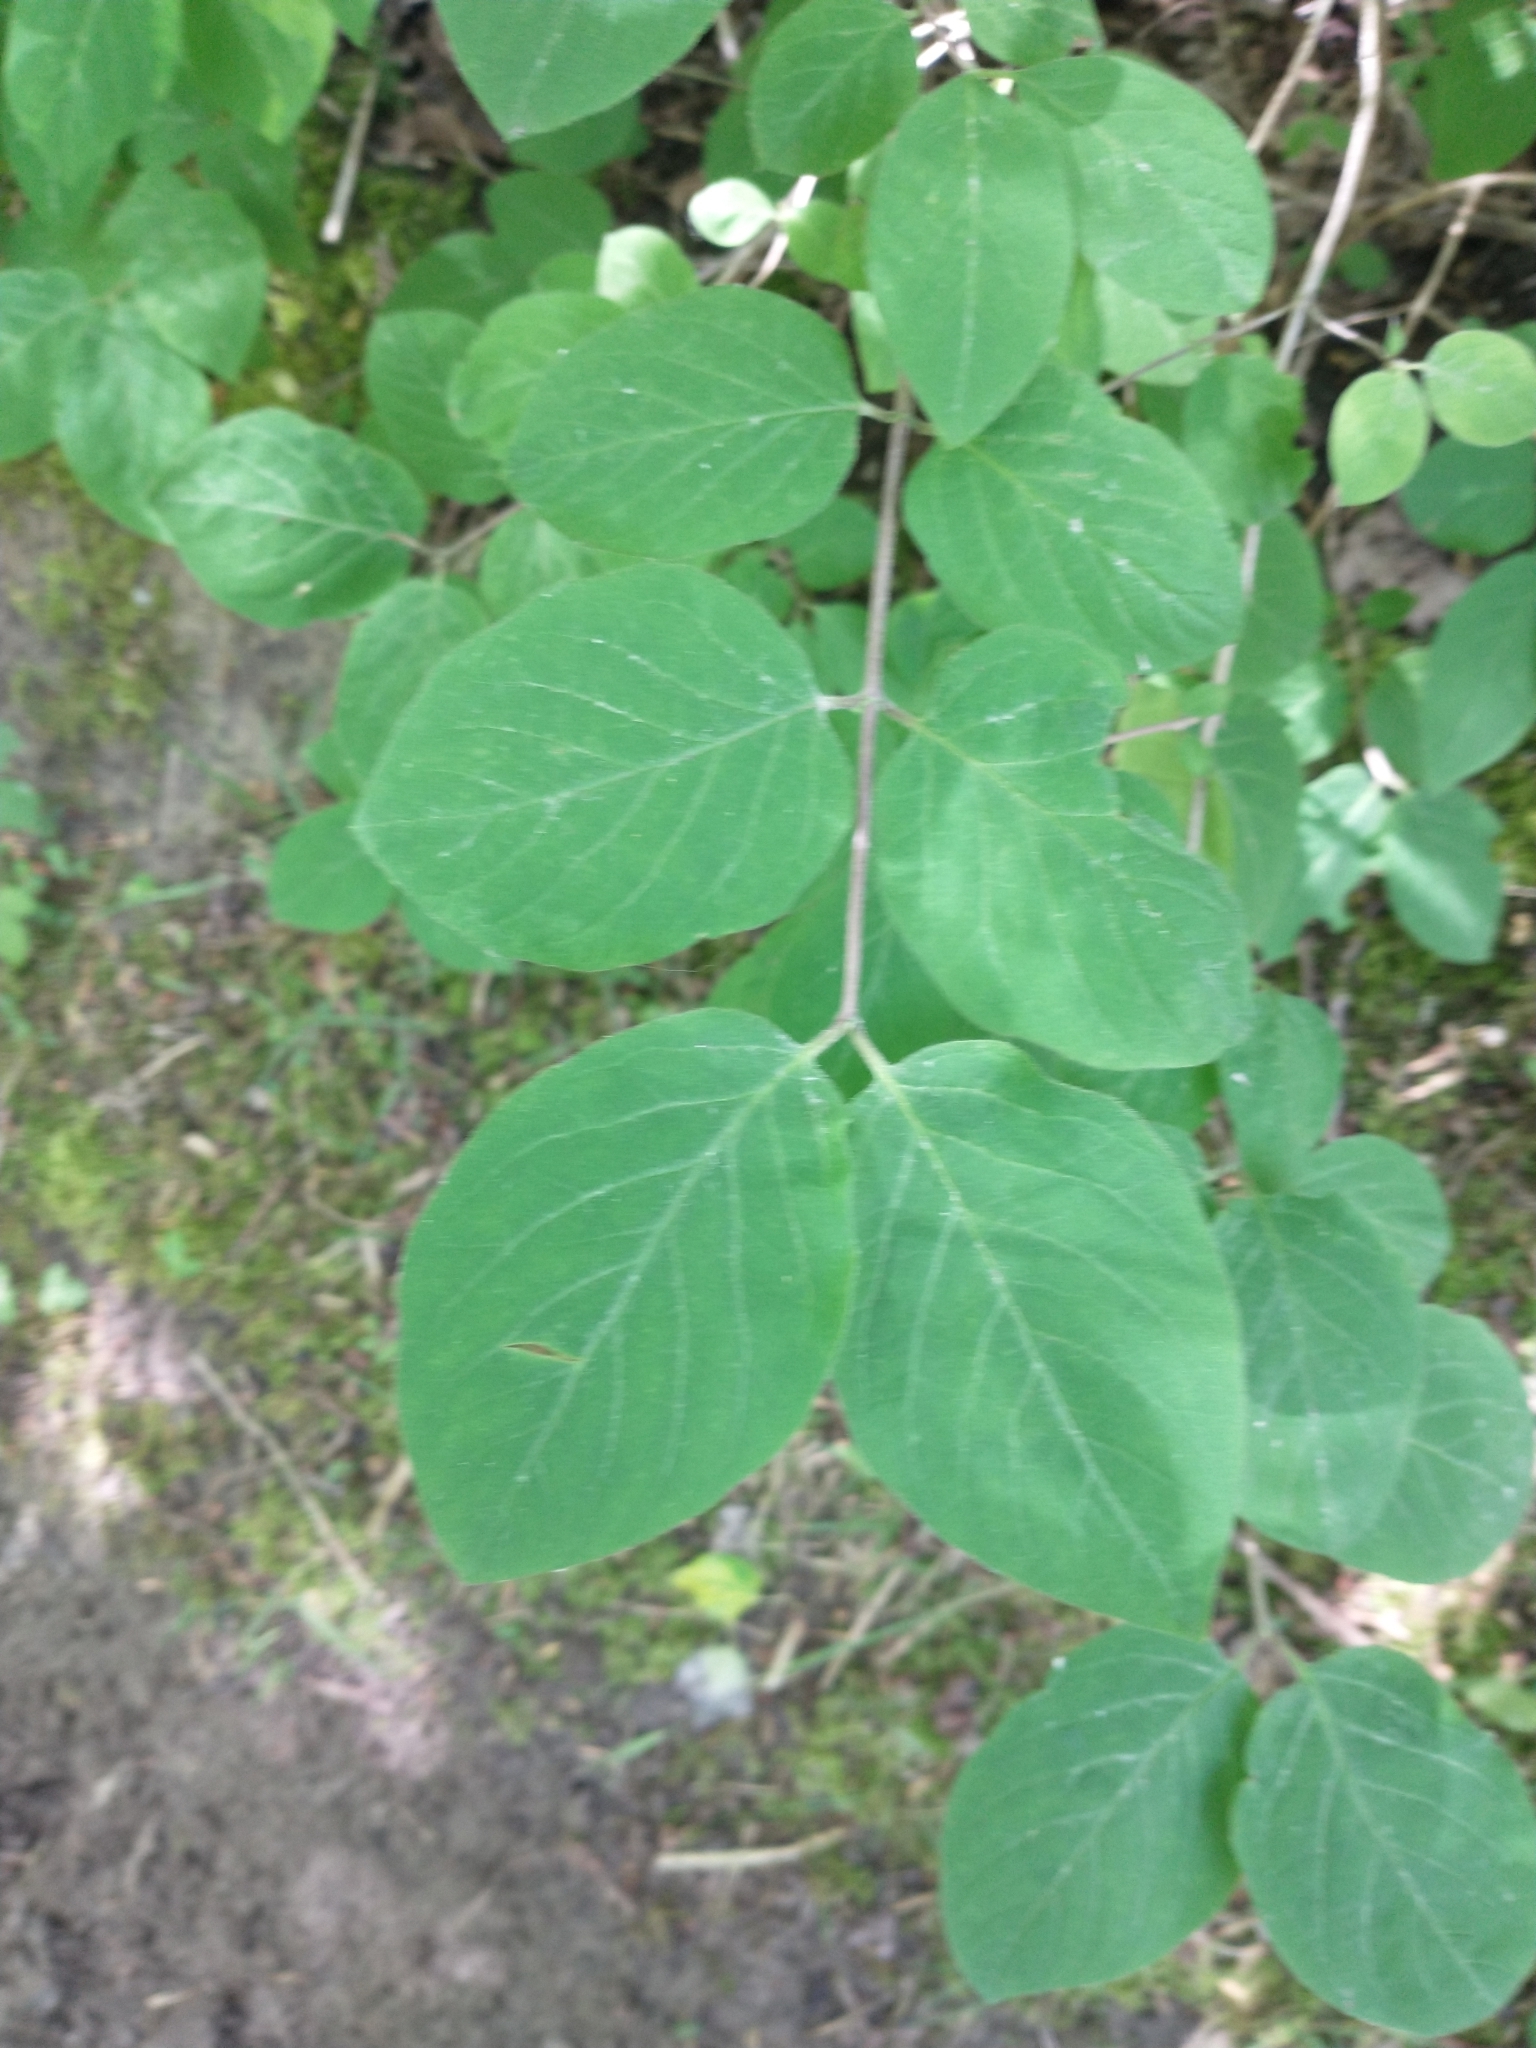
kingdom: Plantae
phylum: Tracheophyta
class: Magnoliopsida
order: Dipsacales
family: Caprifoliaceae
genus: Lonicera
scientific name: Lonicera xylosteum
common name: Fly honeysuckle
